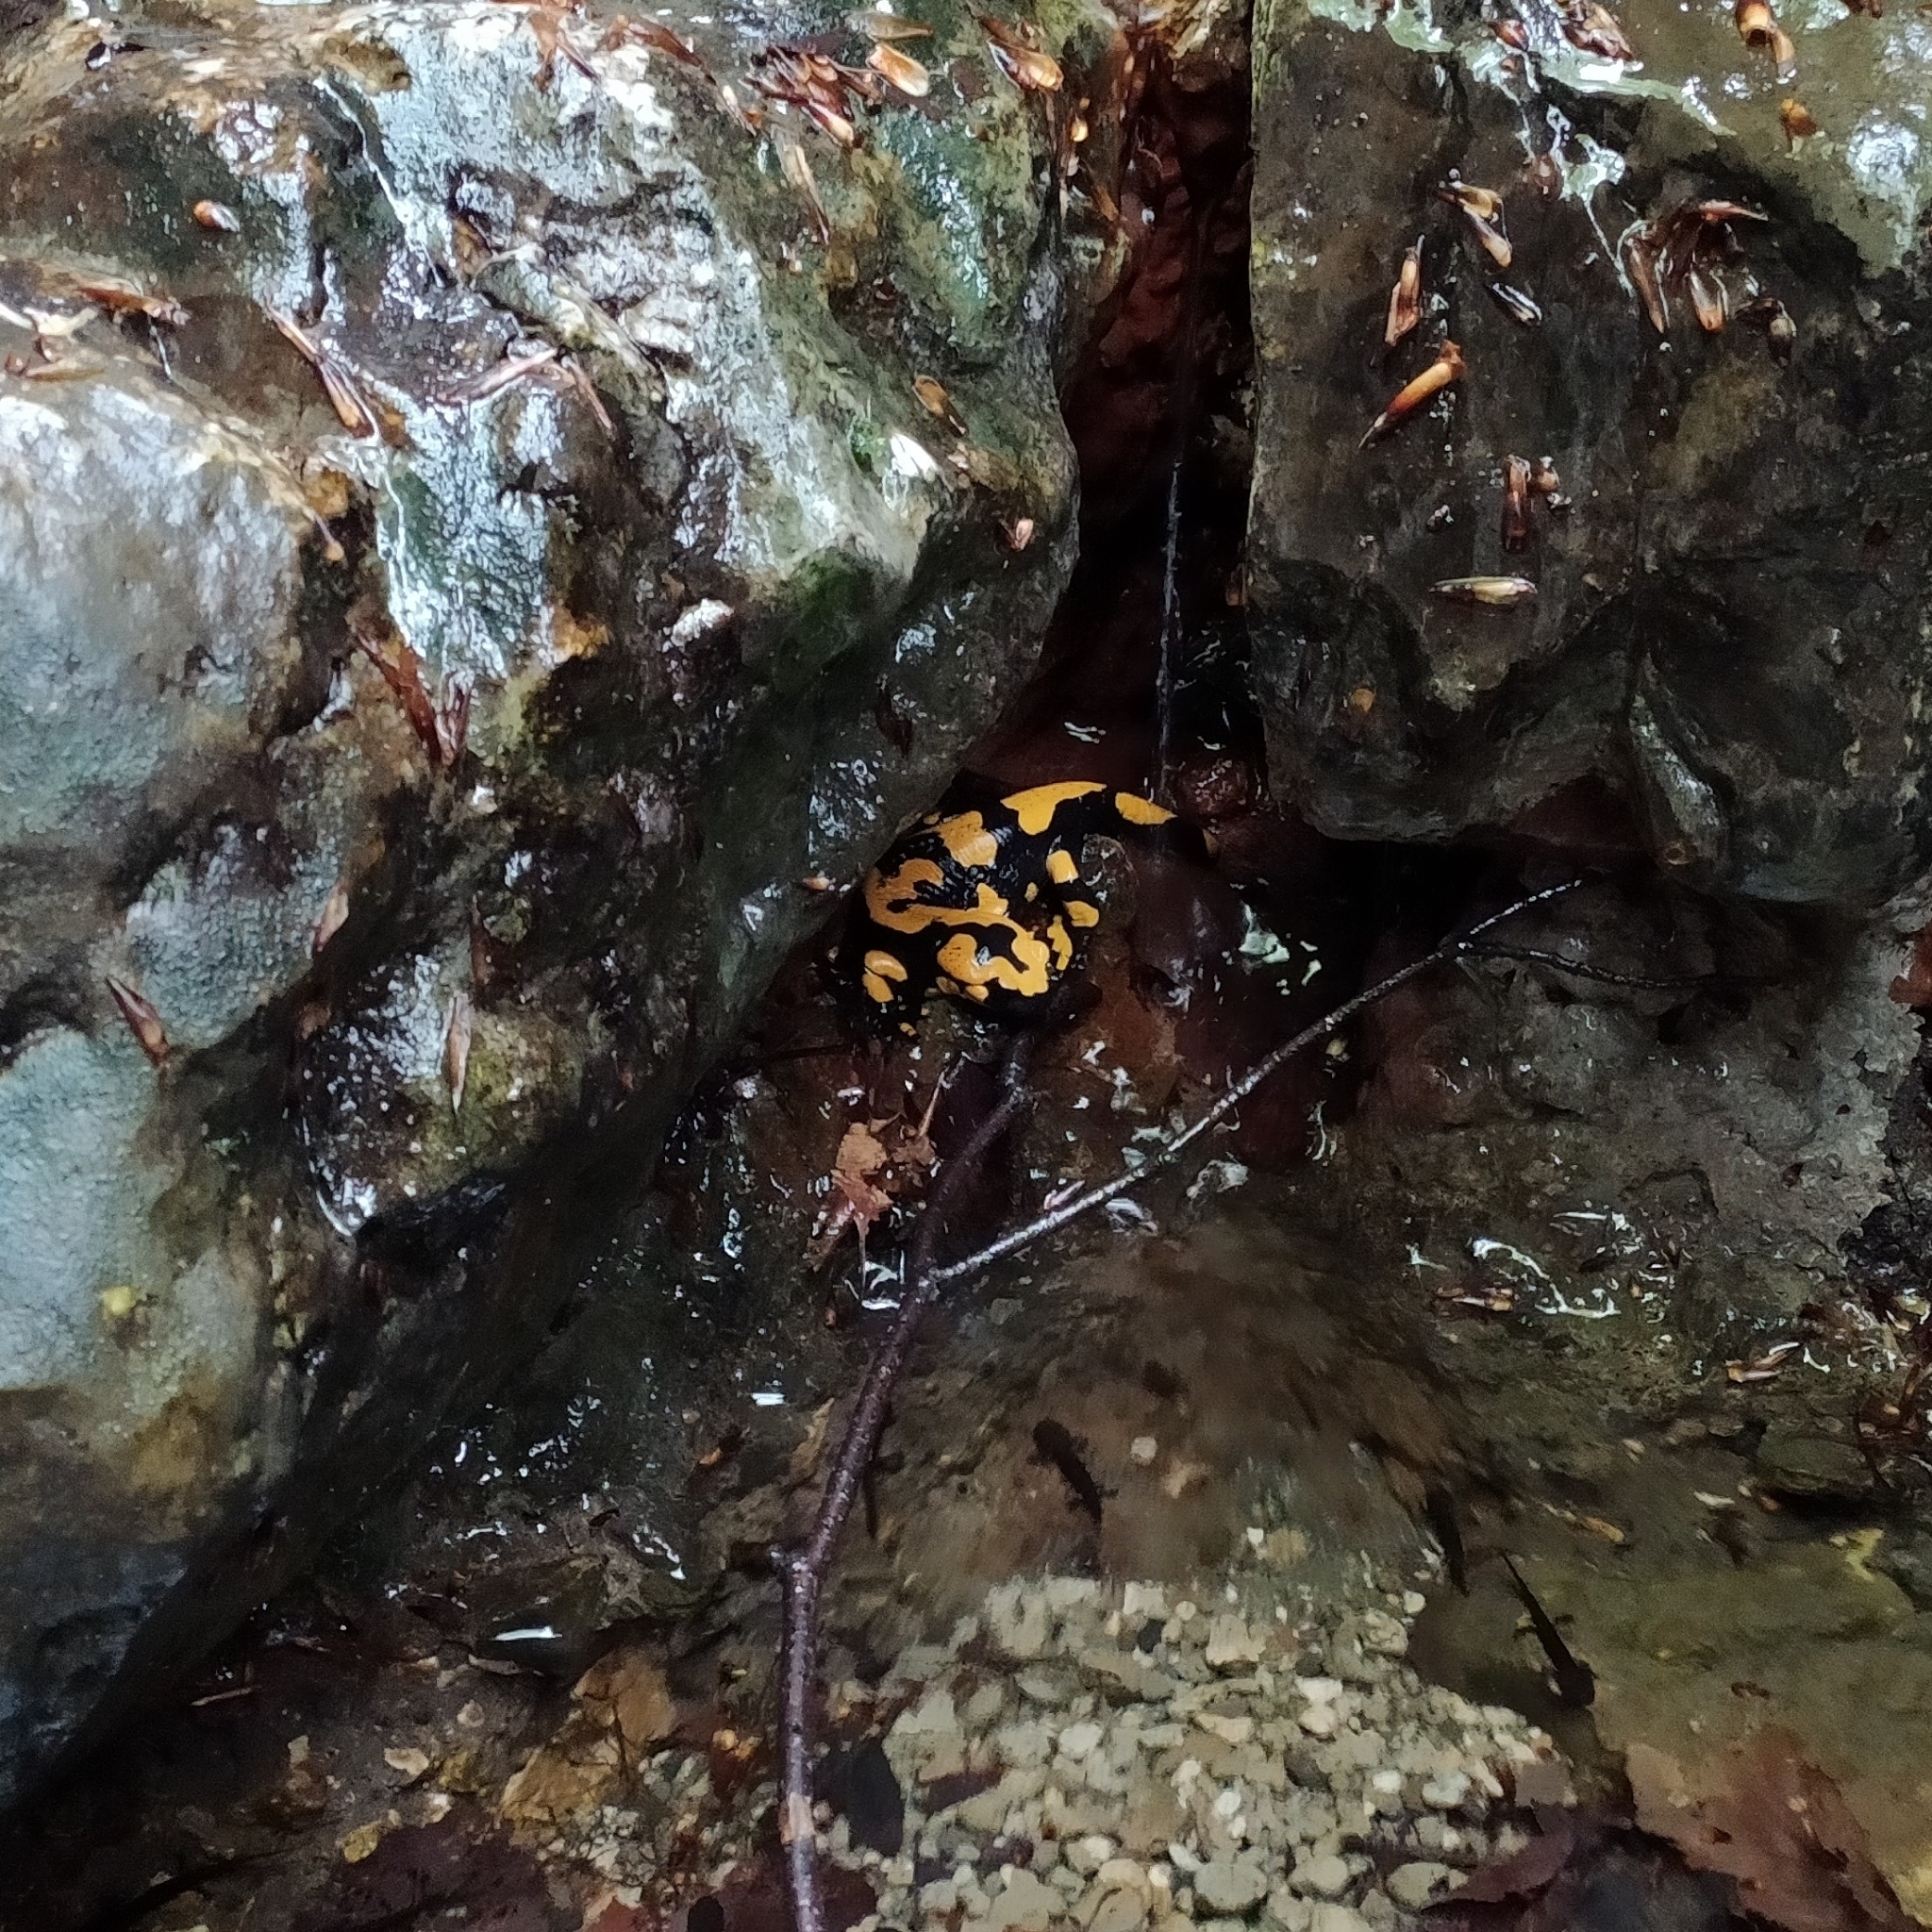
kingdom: Animalia
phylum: Chordata
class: Amphibia
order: Caudata
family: Salamandridae
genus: Salamandra
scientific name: Salamandra salamandra
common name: Fire salamander
